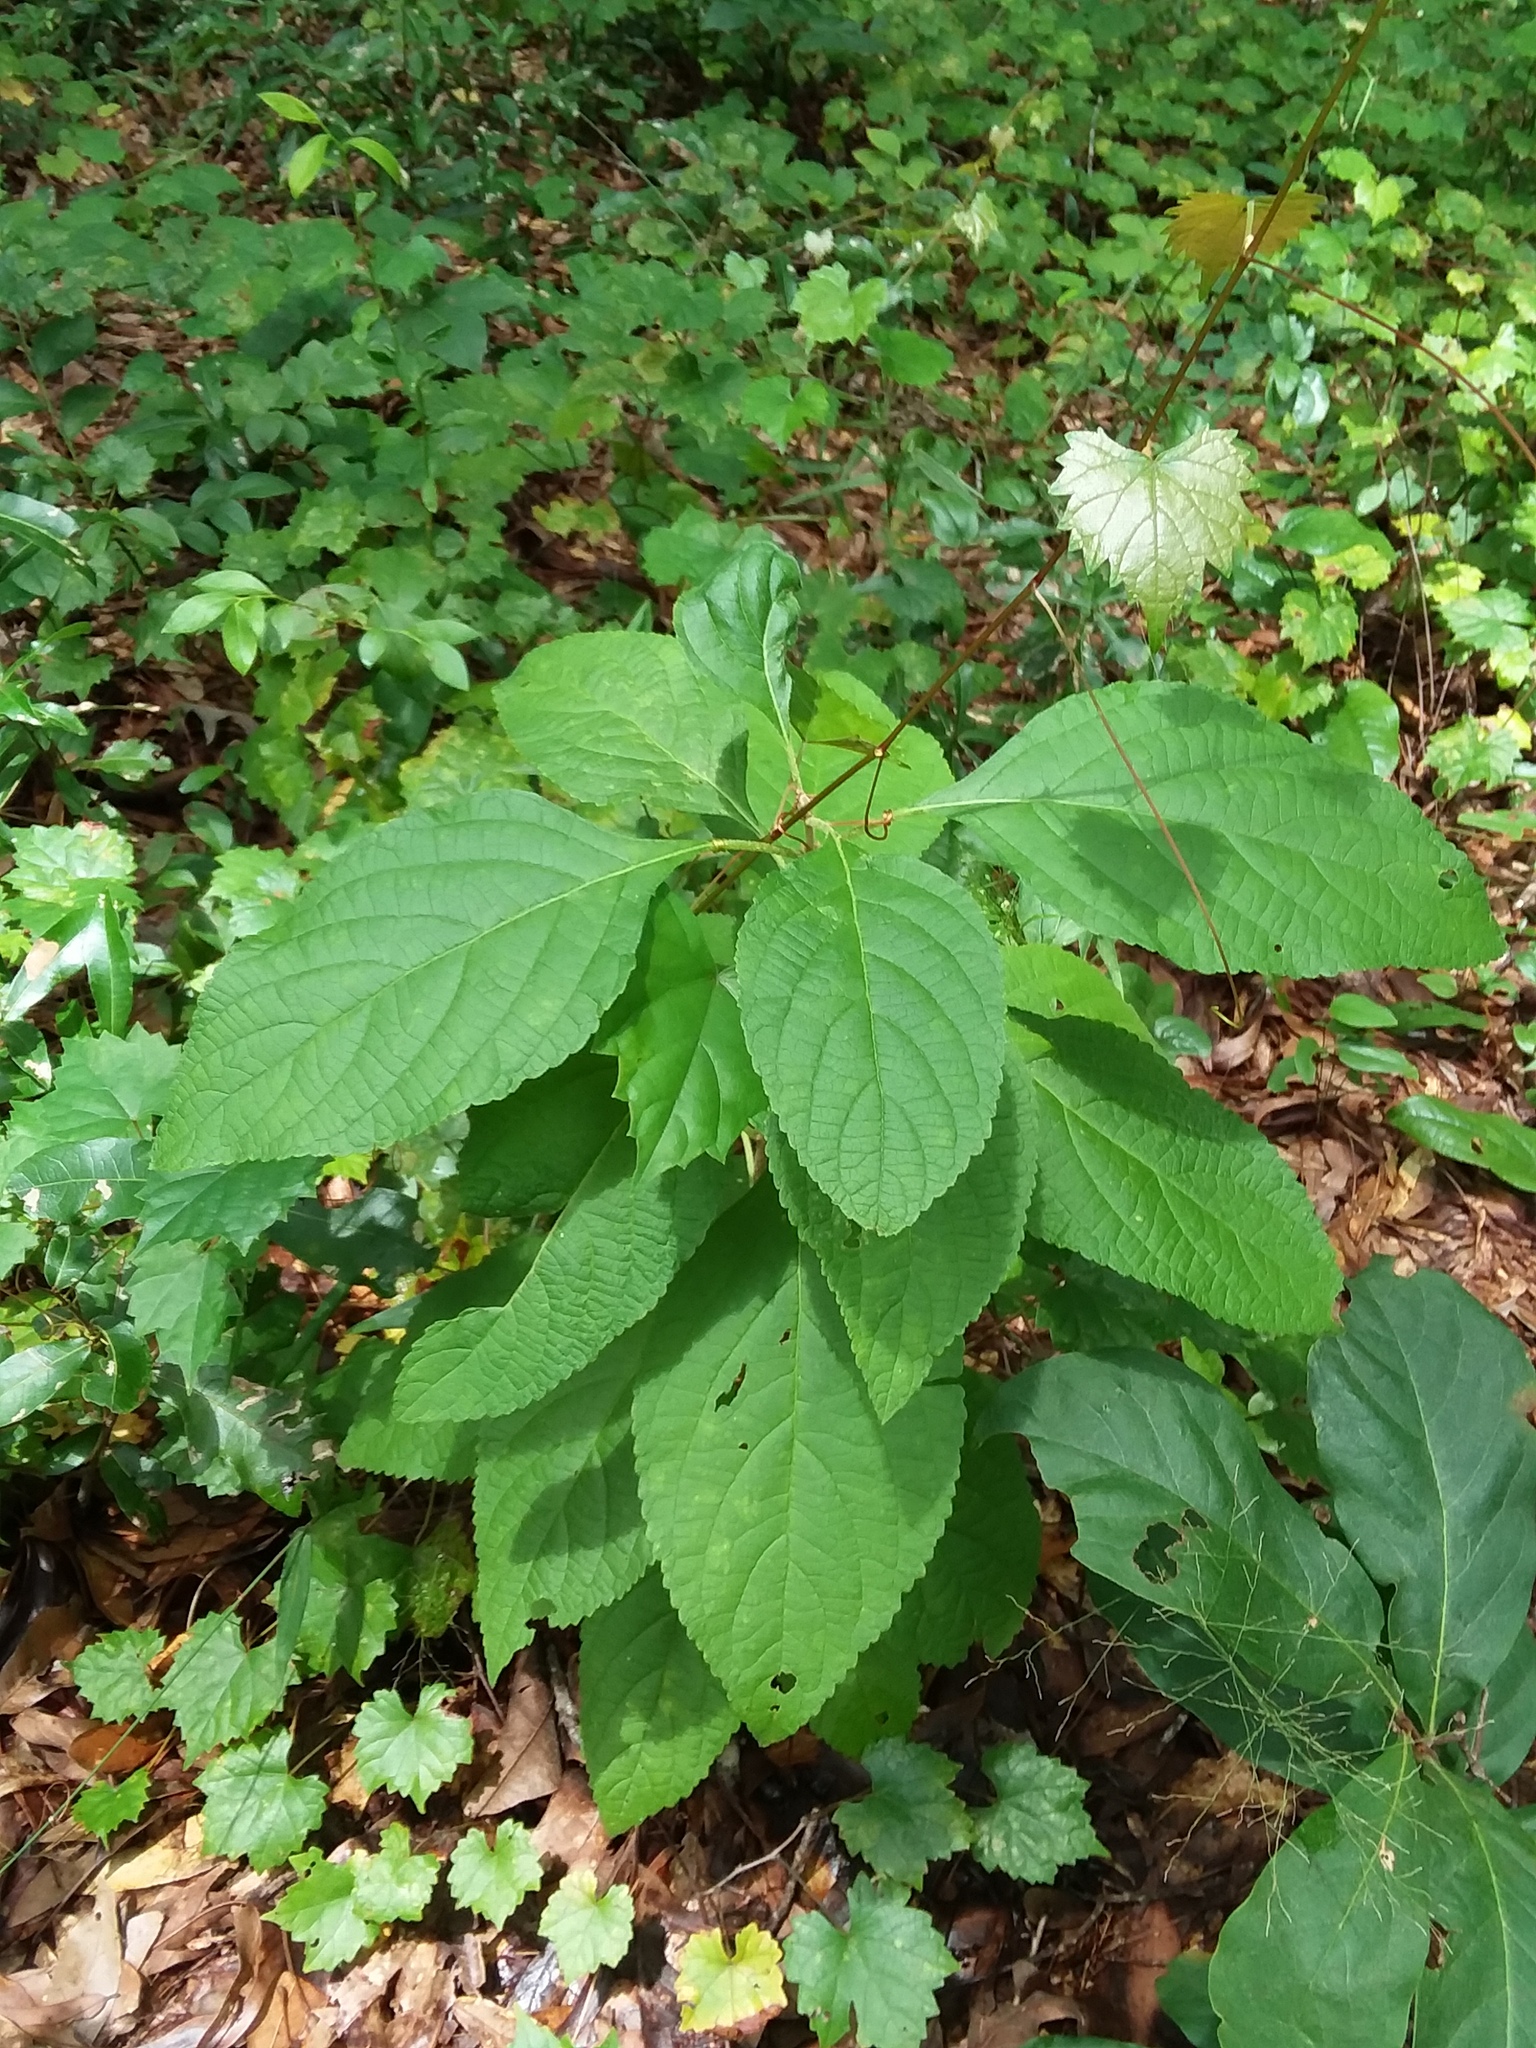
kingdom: Plantae
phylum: Tracheophyta
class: Magnoliopsida
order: Lamiales
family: Lamiaceae
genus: Callicarpa
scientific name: Callicarpa americana
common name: American beautyberry
